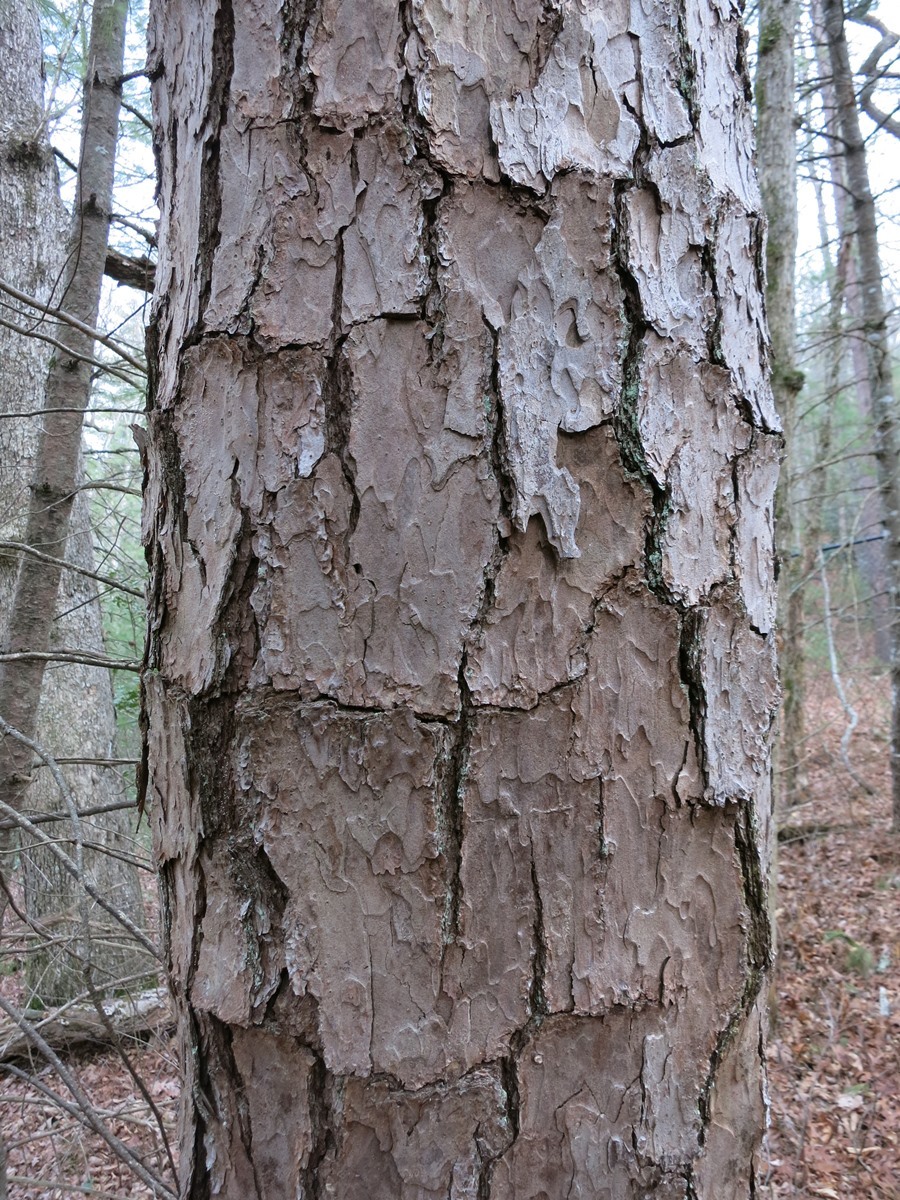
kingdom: Plantae
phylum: Tracheophyta
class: Pinopsida
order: Pinales
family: Pinaceae
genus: Pinus
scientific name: Pinus echinata
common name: Shortleaf pine
